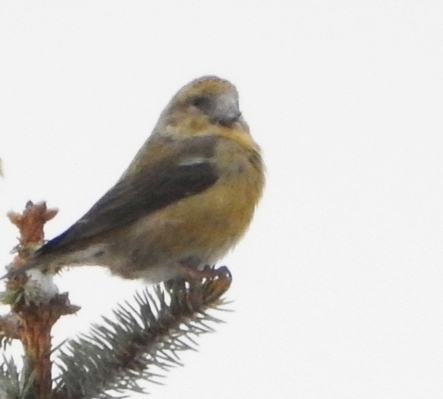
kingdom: Animalia
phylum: Chordata
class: Aves
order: Passeriformes
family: Fringillidae
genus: Loxia
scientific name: Loxia curvirostra
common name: Red crossbill
